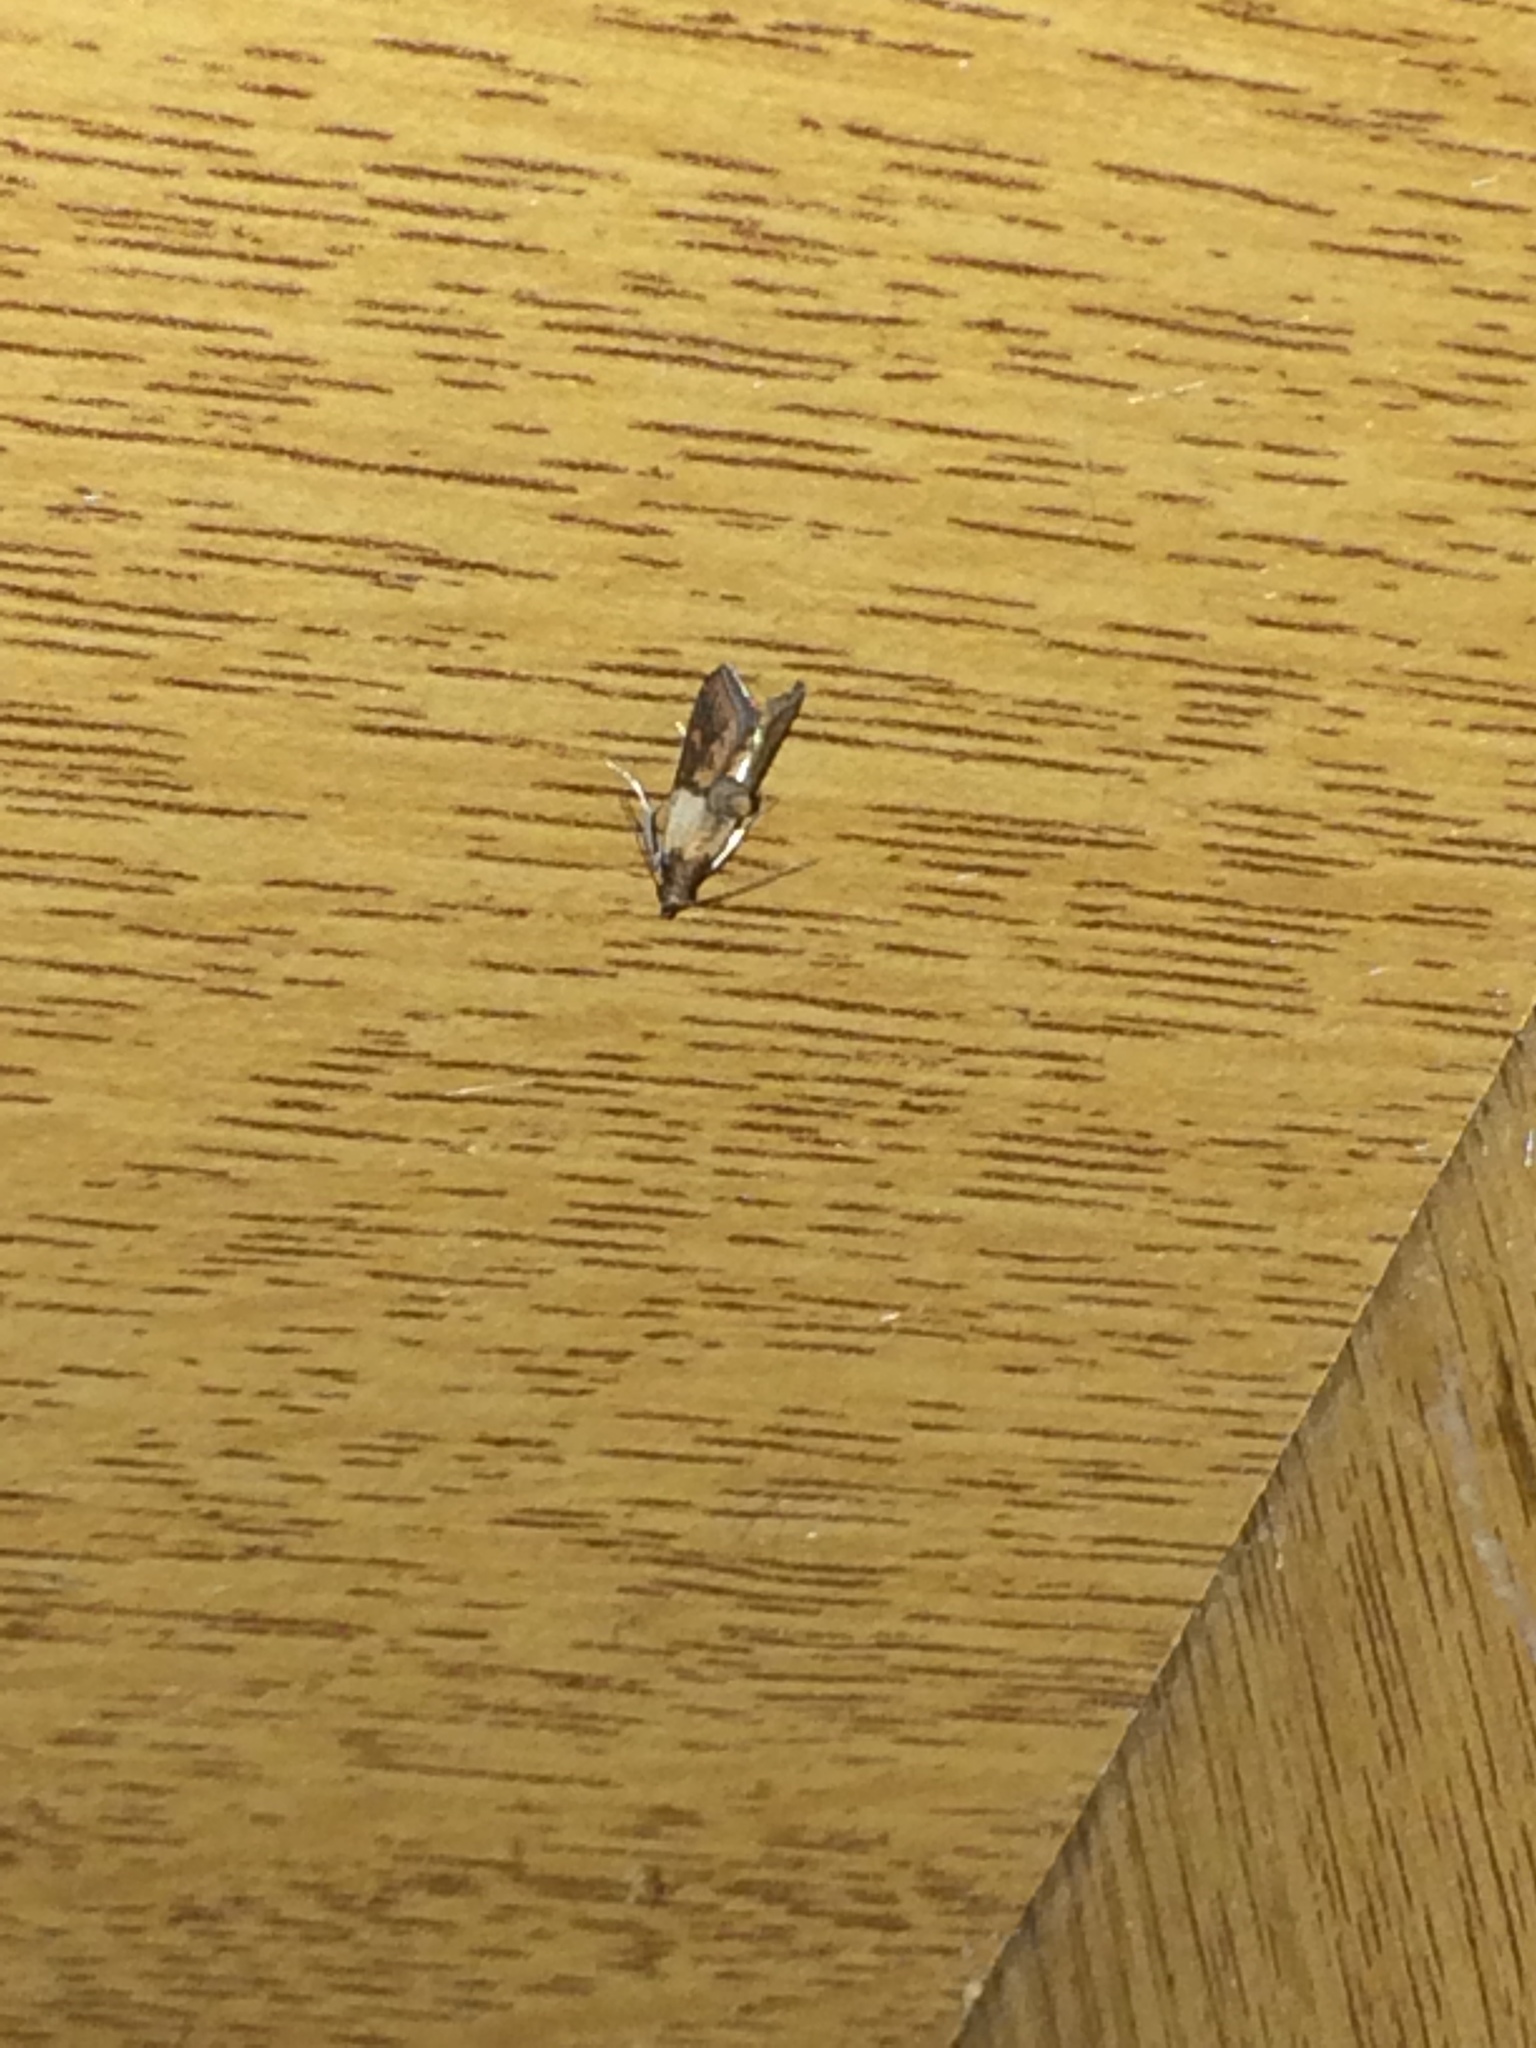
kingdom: Animalia
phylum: Arthropoda
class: Insecta
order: Lepidoptera
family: Pyralidae
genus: Plodia
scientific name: Plodia interpunctella
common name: Indian meal moth
